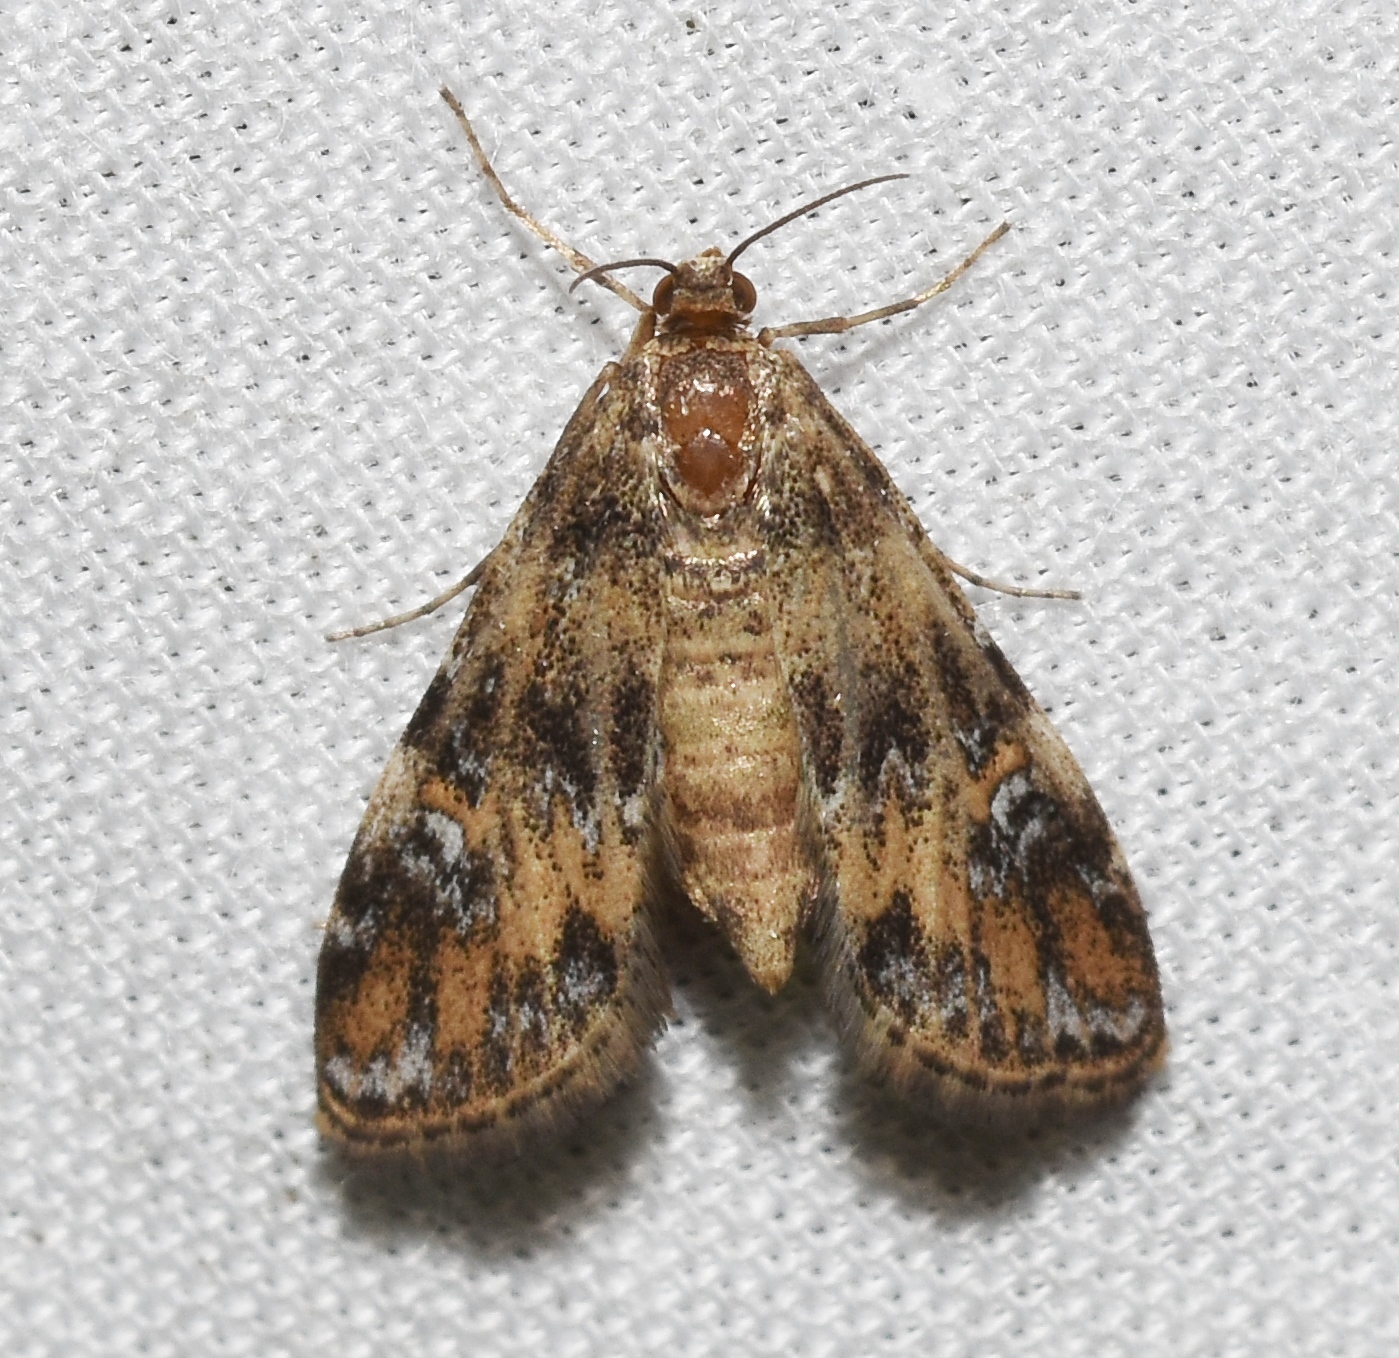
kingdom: Animalia
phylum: Arthropoda
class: Insecta
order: Lepidoptera
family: Crambidae
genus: Elophila
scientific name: Elophila obliteralis
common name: Waterlily leafcutter moth
